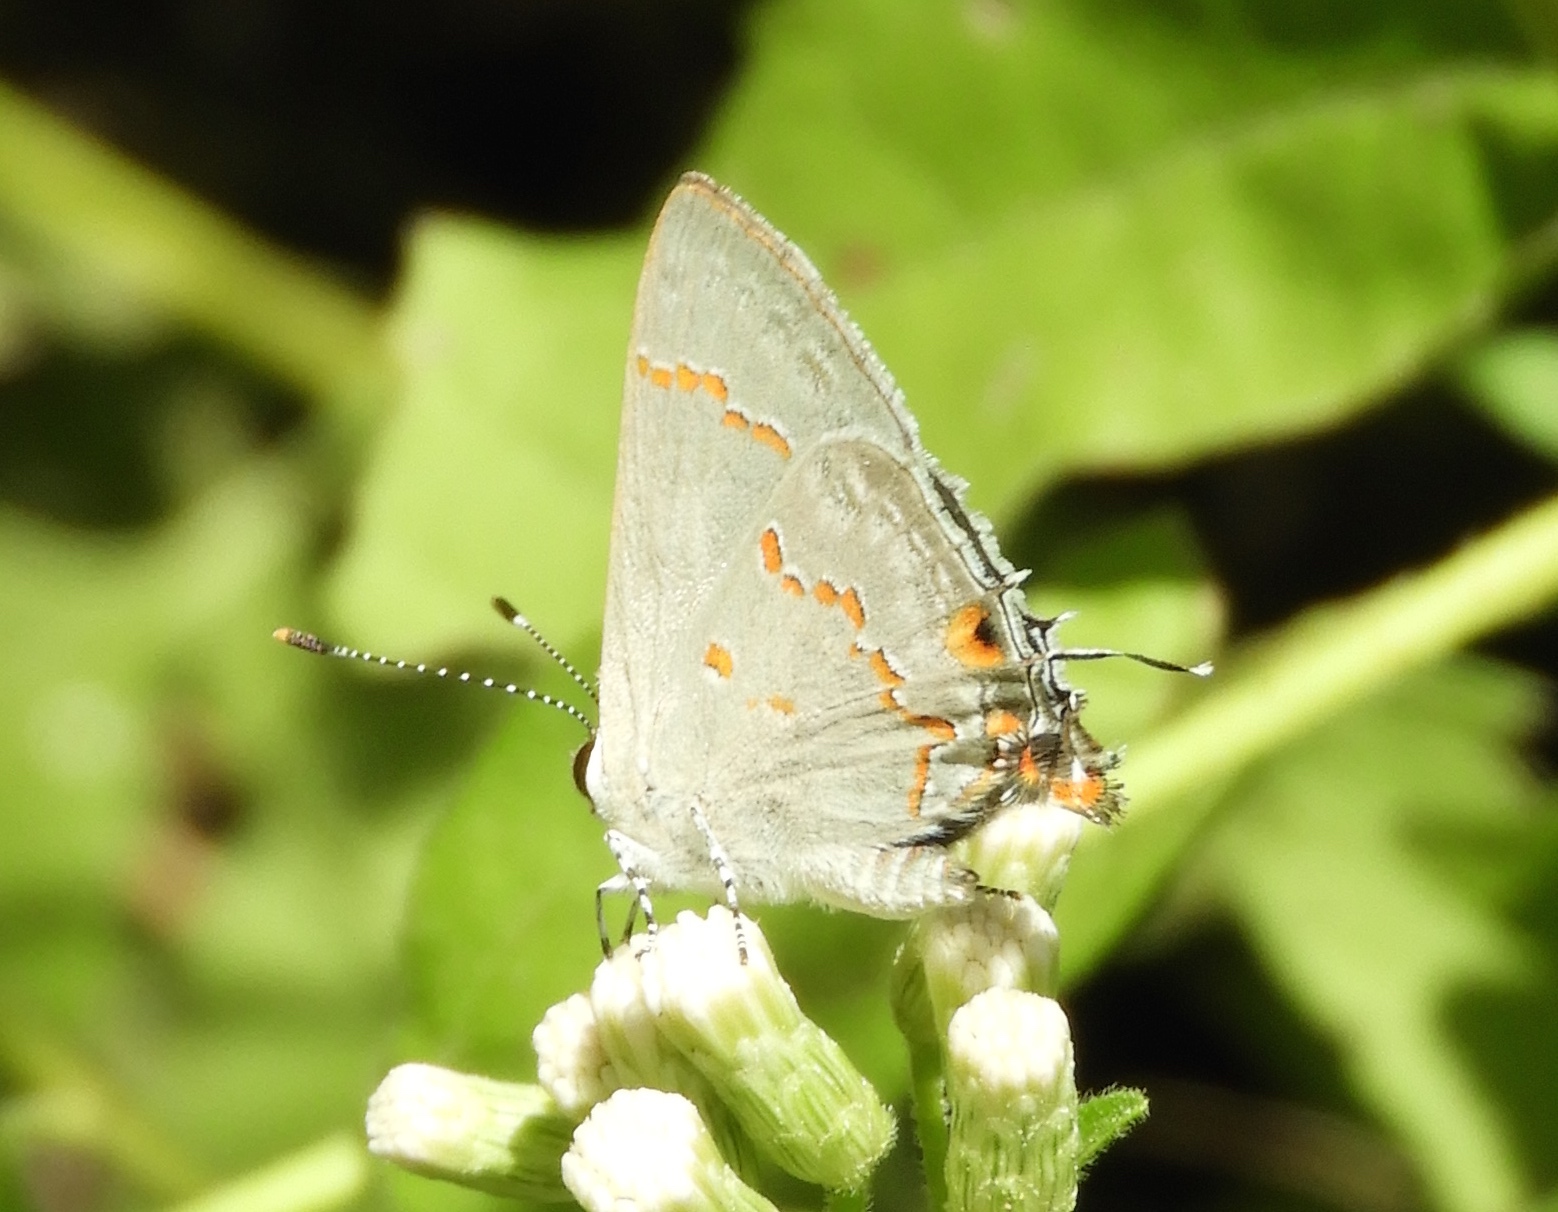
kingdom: Animalia
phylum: Arthropoda
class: Insecta
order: Lepidoptera
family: Lycaenidae
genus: Strymon
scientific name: Strymon
